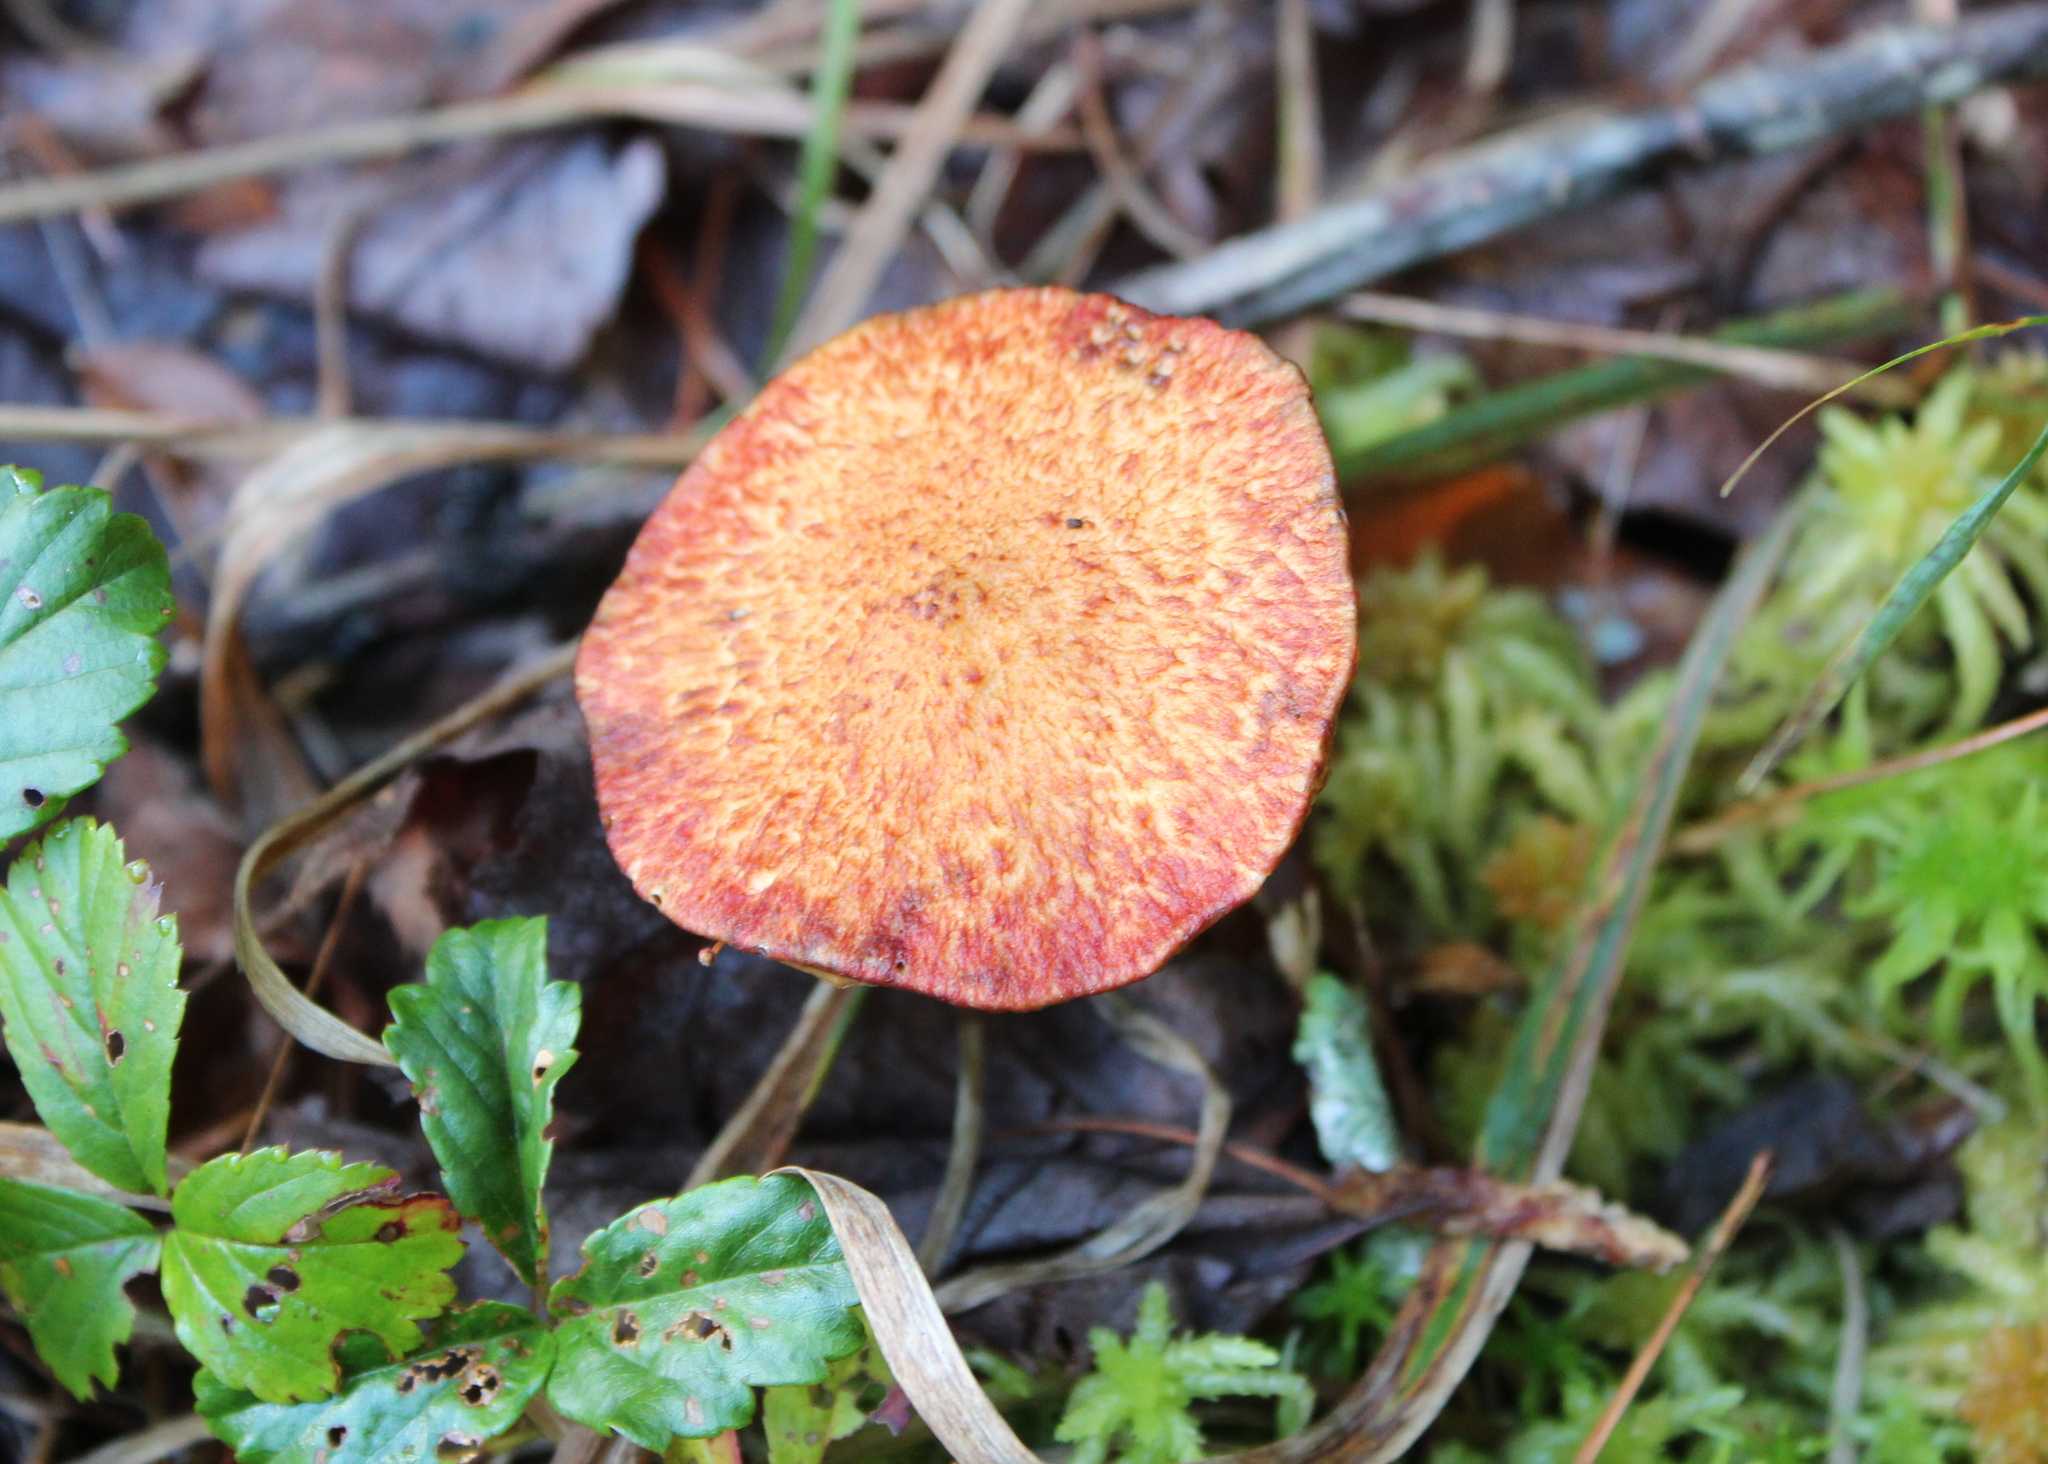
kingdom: Fungi
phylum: Basidiomycota
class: Agaricomycetes
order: Boletales
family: Suillaceae
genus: Suillus
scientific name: Suillus spraguei
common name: Painted suillus
